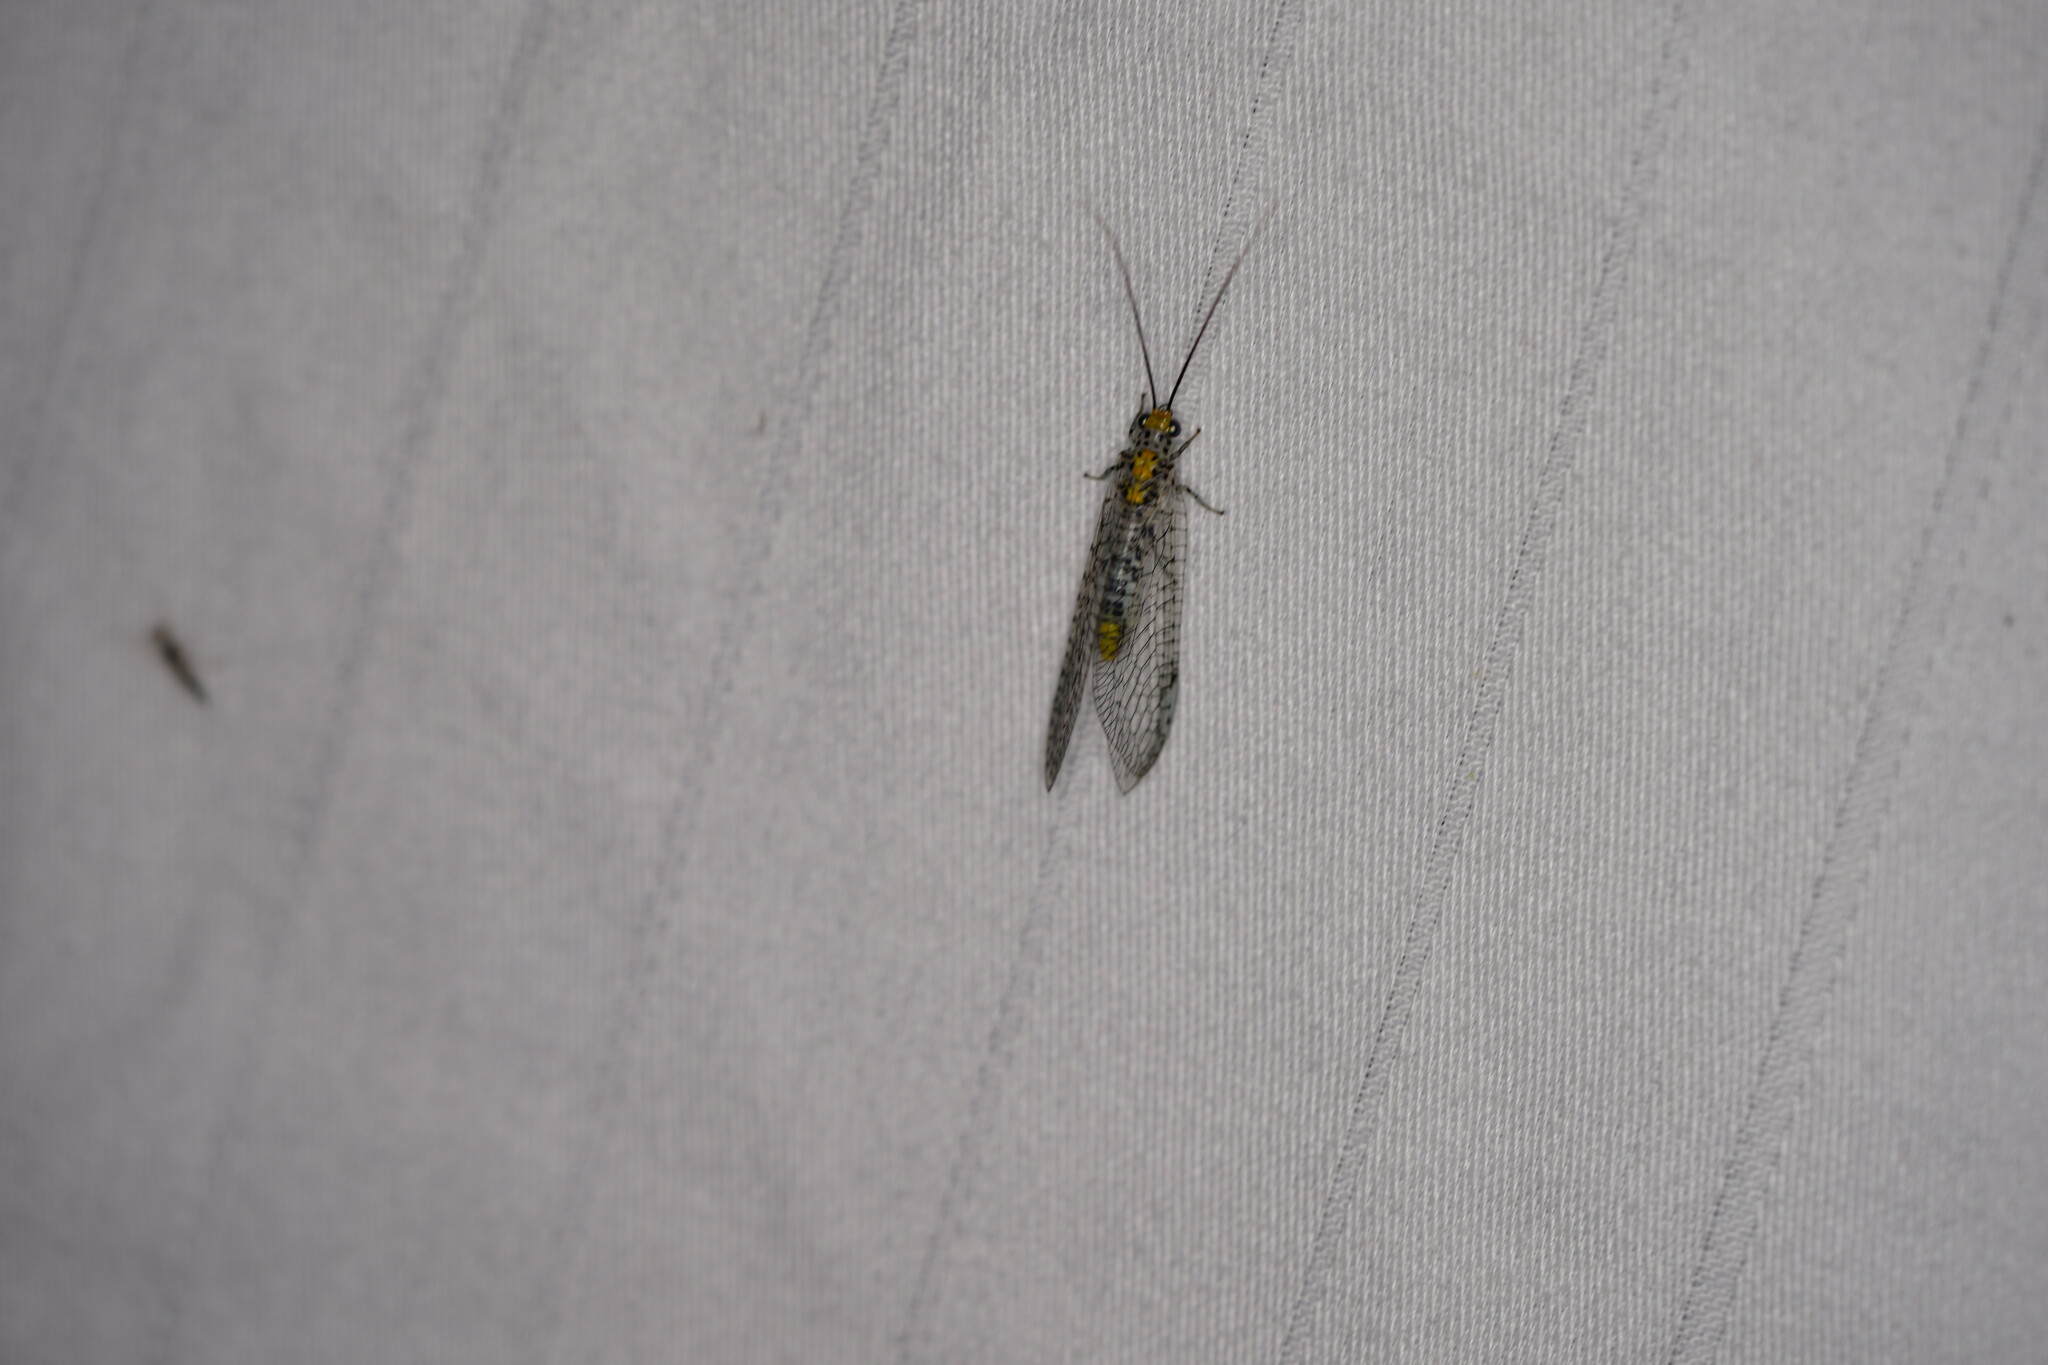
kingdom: Animalia
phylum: Arthropoda
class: Insecta
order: Neuroptera
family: Chrysopidae
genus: Abachrysa
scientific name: Abachrysa eureka
